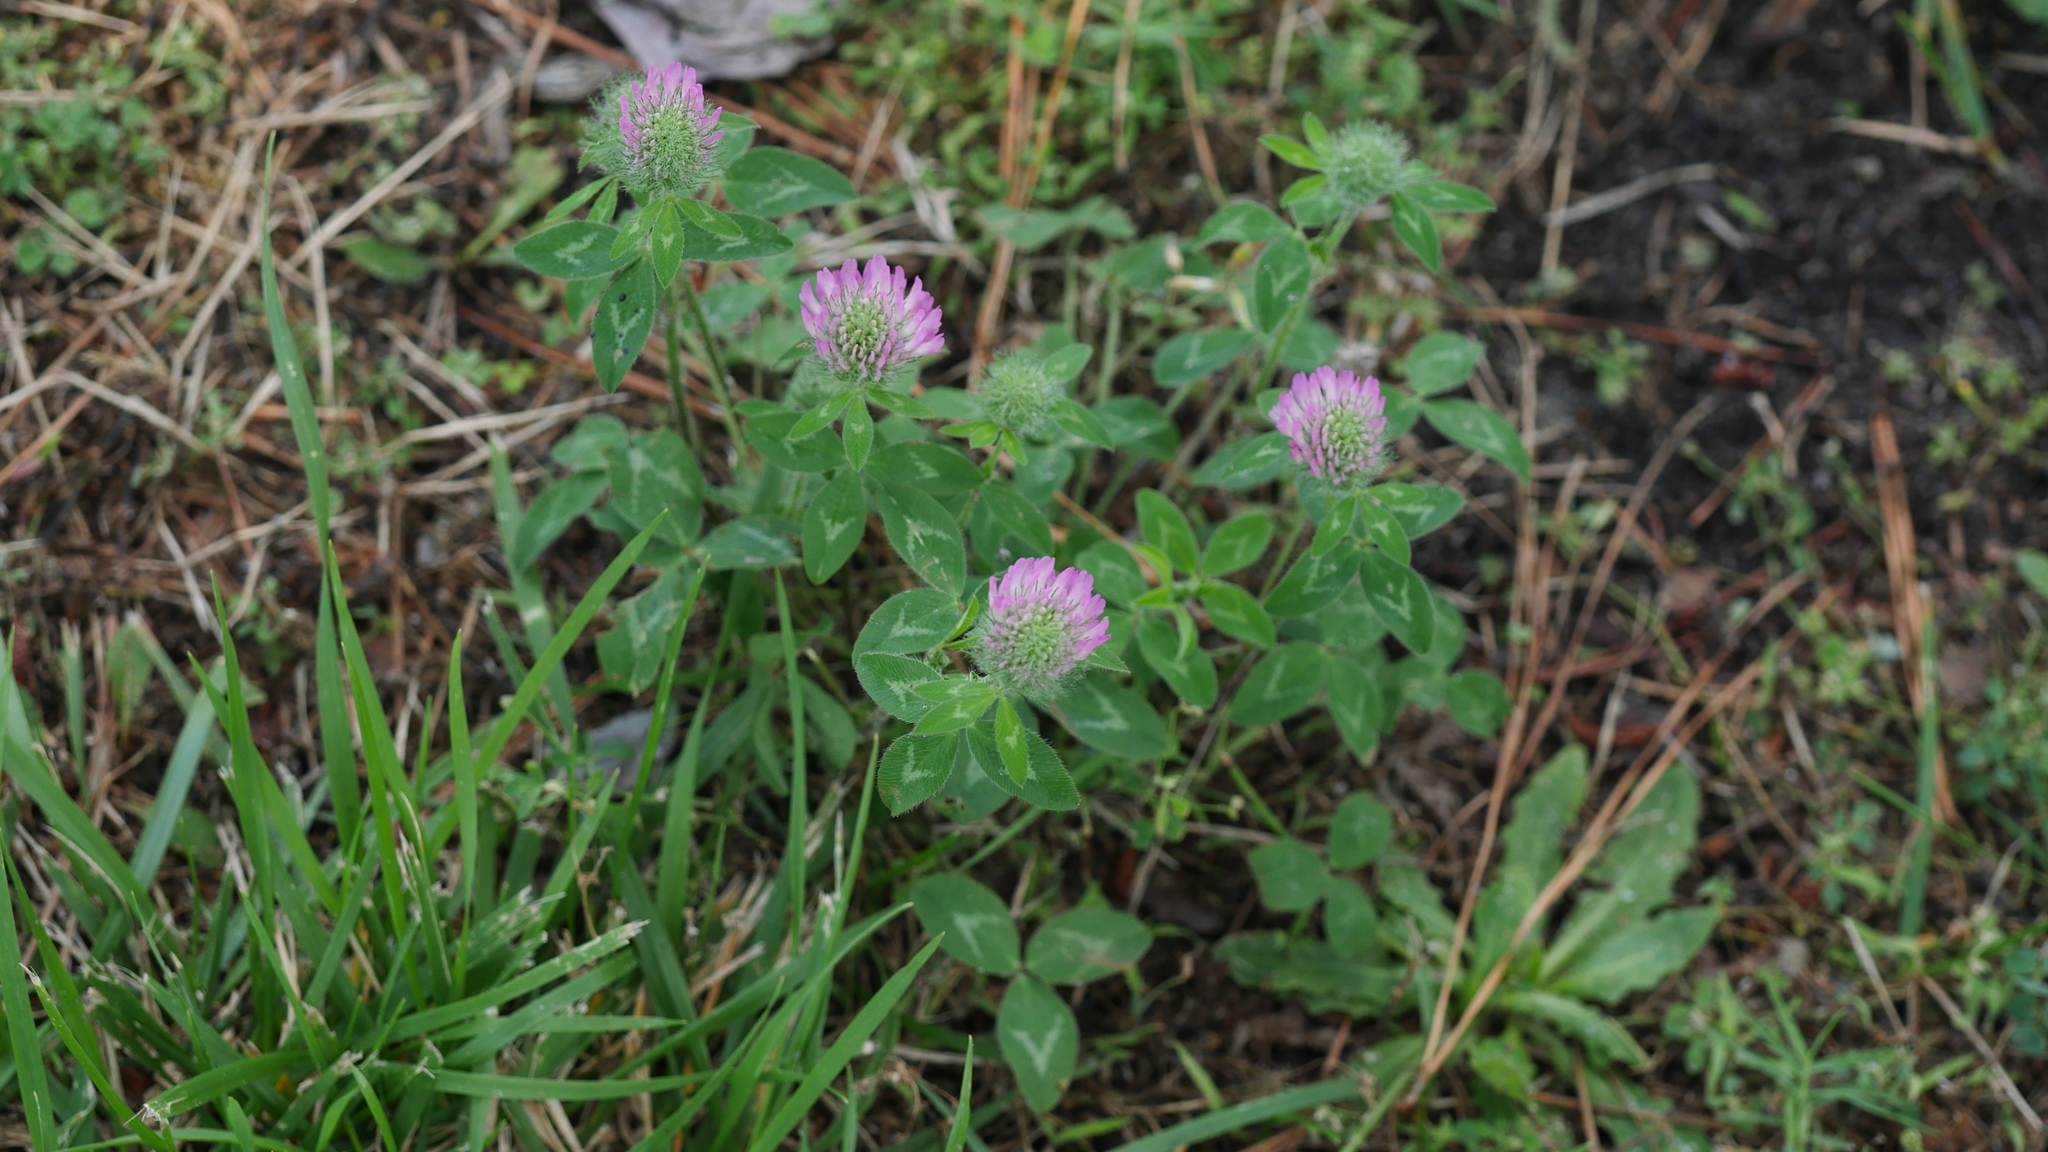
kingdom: Plantae
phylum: Tracheophyta
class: Magnoliopsida
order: Fabales
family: Fabaceae
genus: Trifolium
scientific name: Trifolium pratense
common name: Red clover
